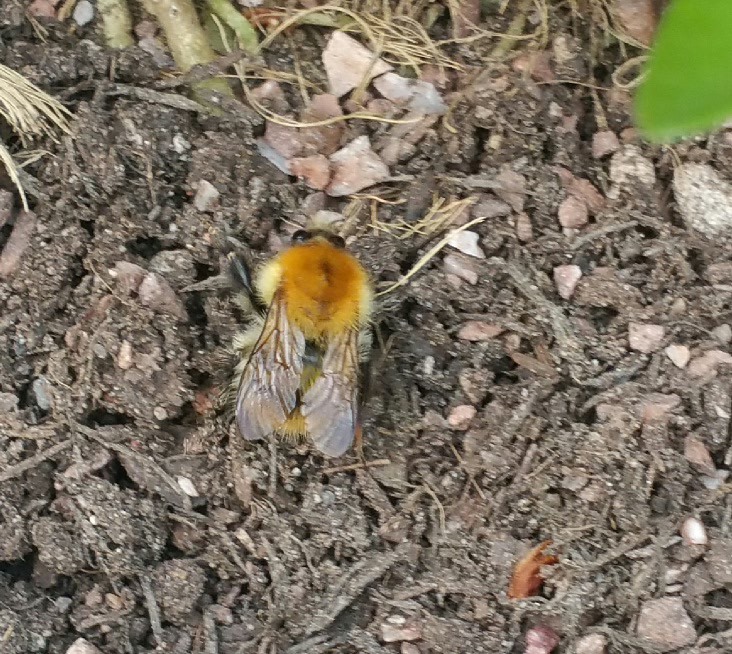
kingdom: Animalia
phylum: Arthropoda
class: Insecta
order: Hymenoptera
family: Apidae
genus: Bombus
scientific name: Bombus pascuorum
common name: Common carder bee
